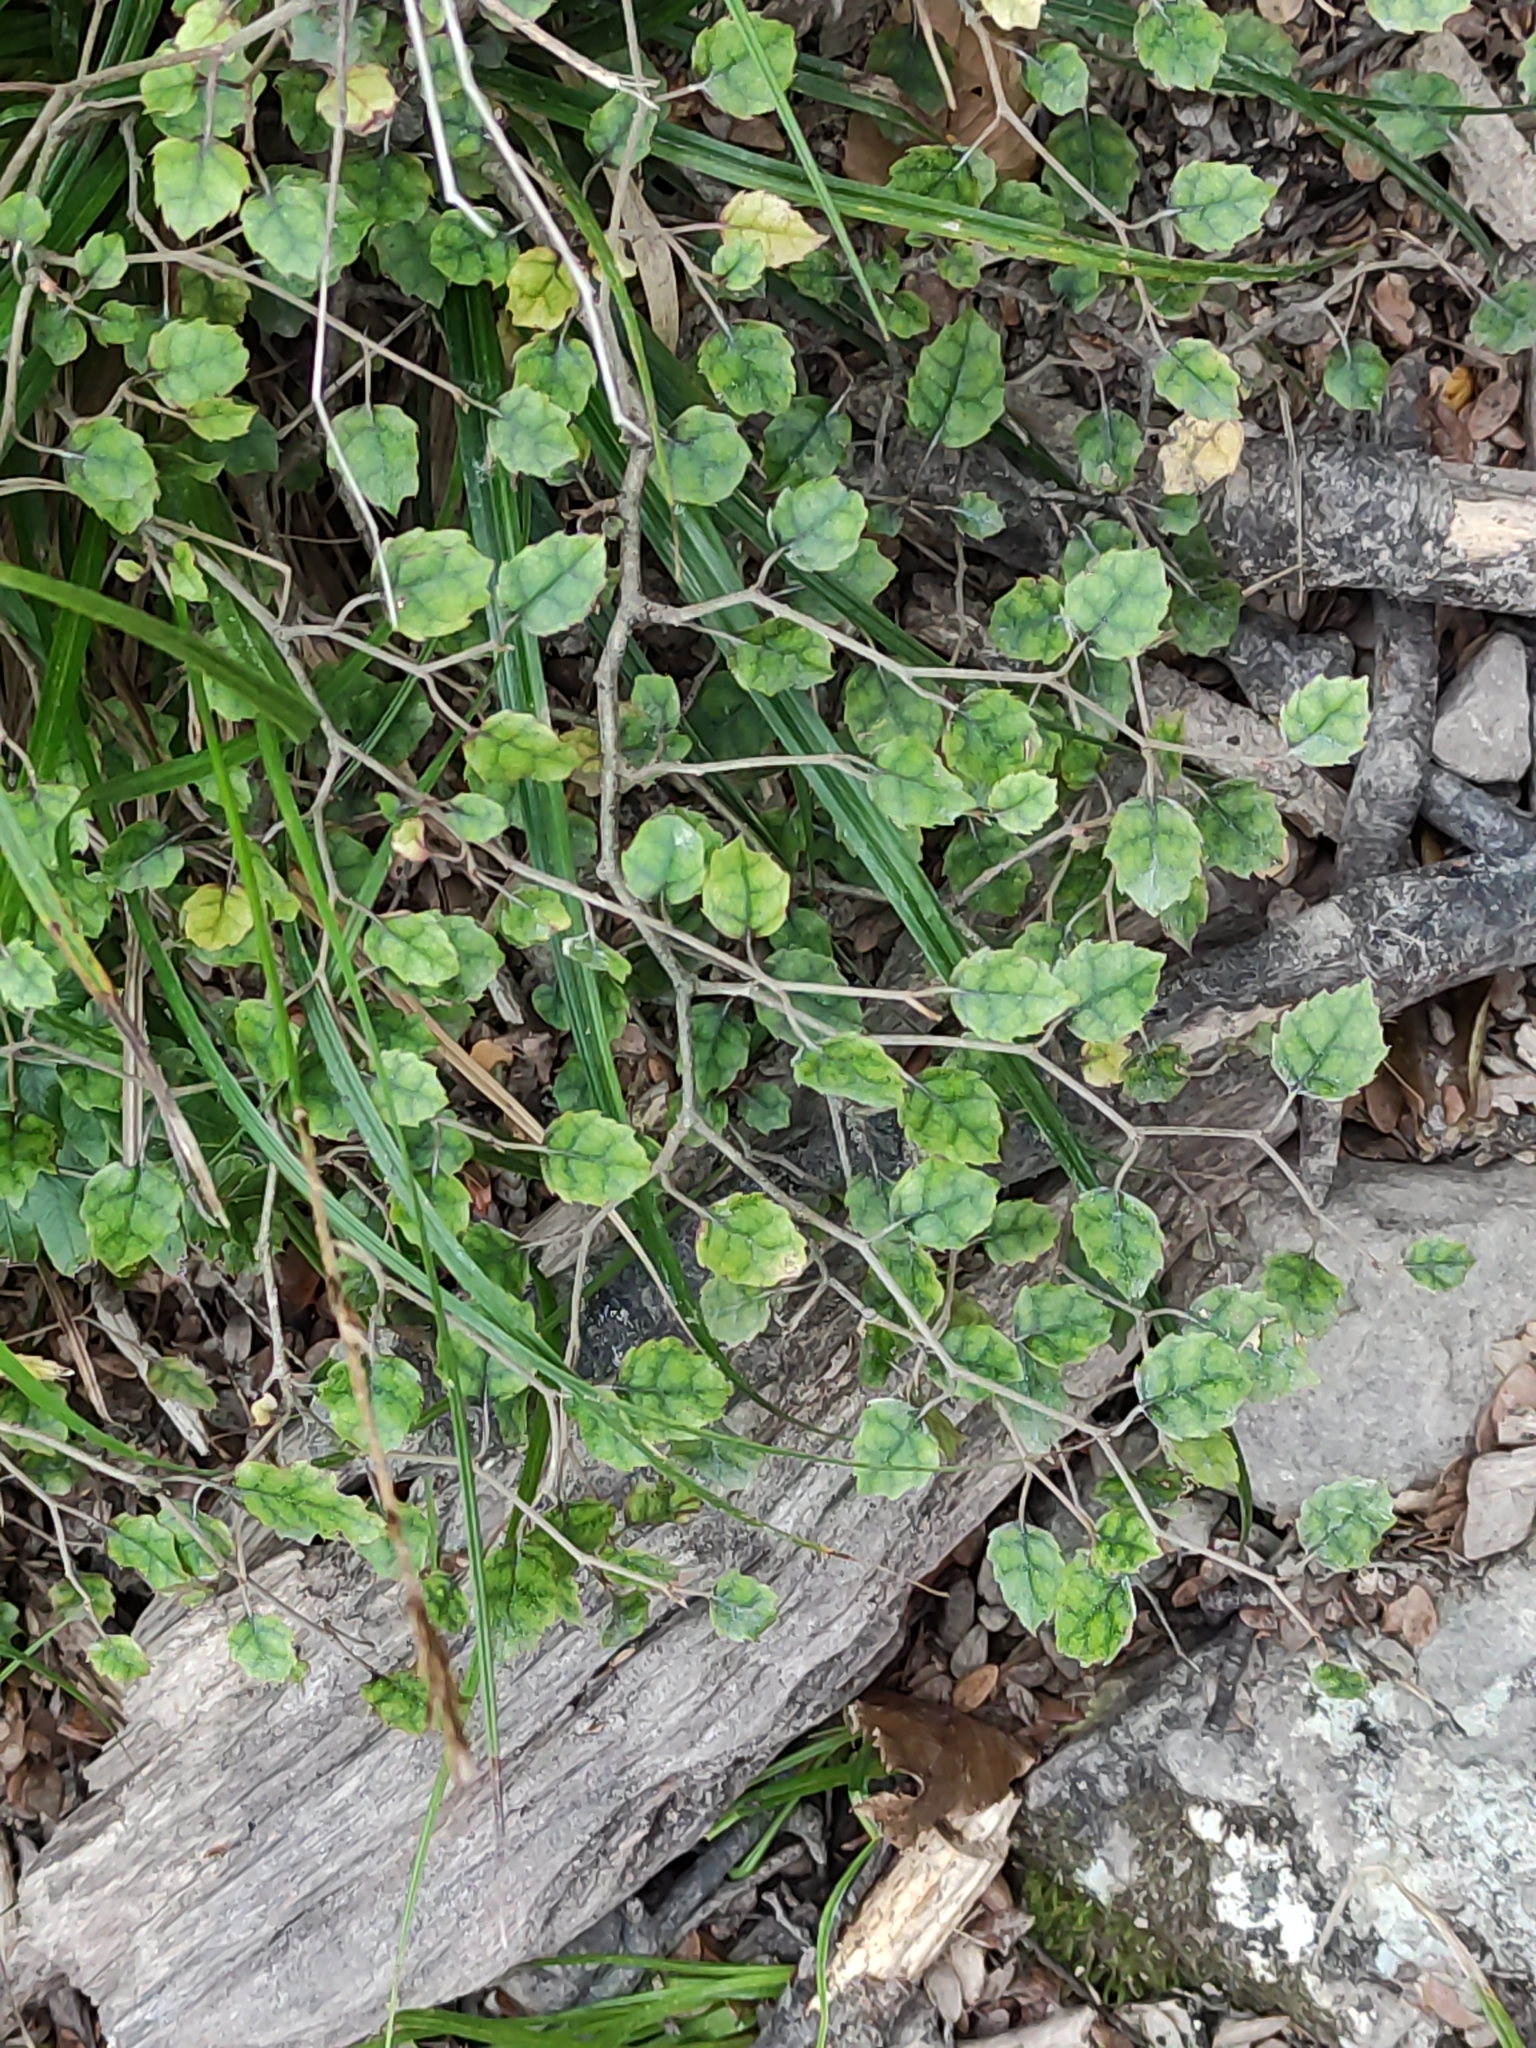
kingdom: Plantae
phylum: Tracheophyta
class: Magnoliopsida
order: Asterales
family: Rousseaceae
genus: Carpodetus
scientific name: Carpodetus serratus
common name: White mapau
